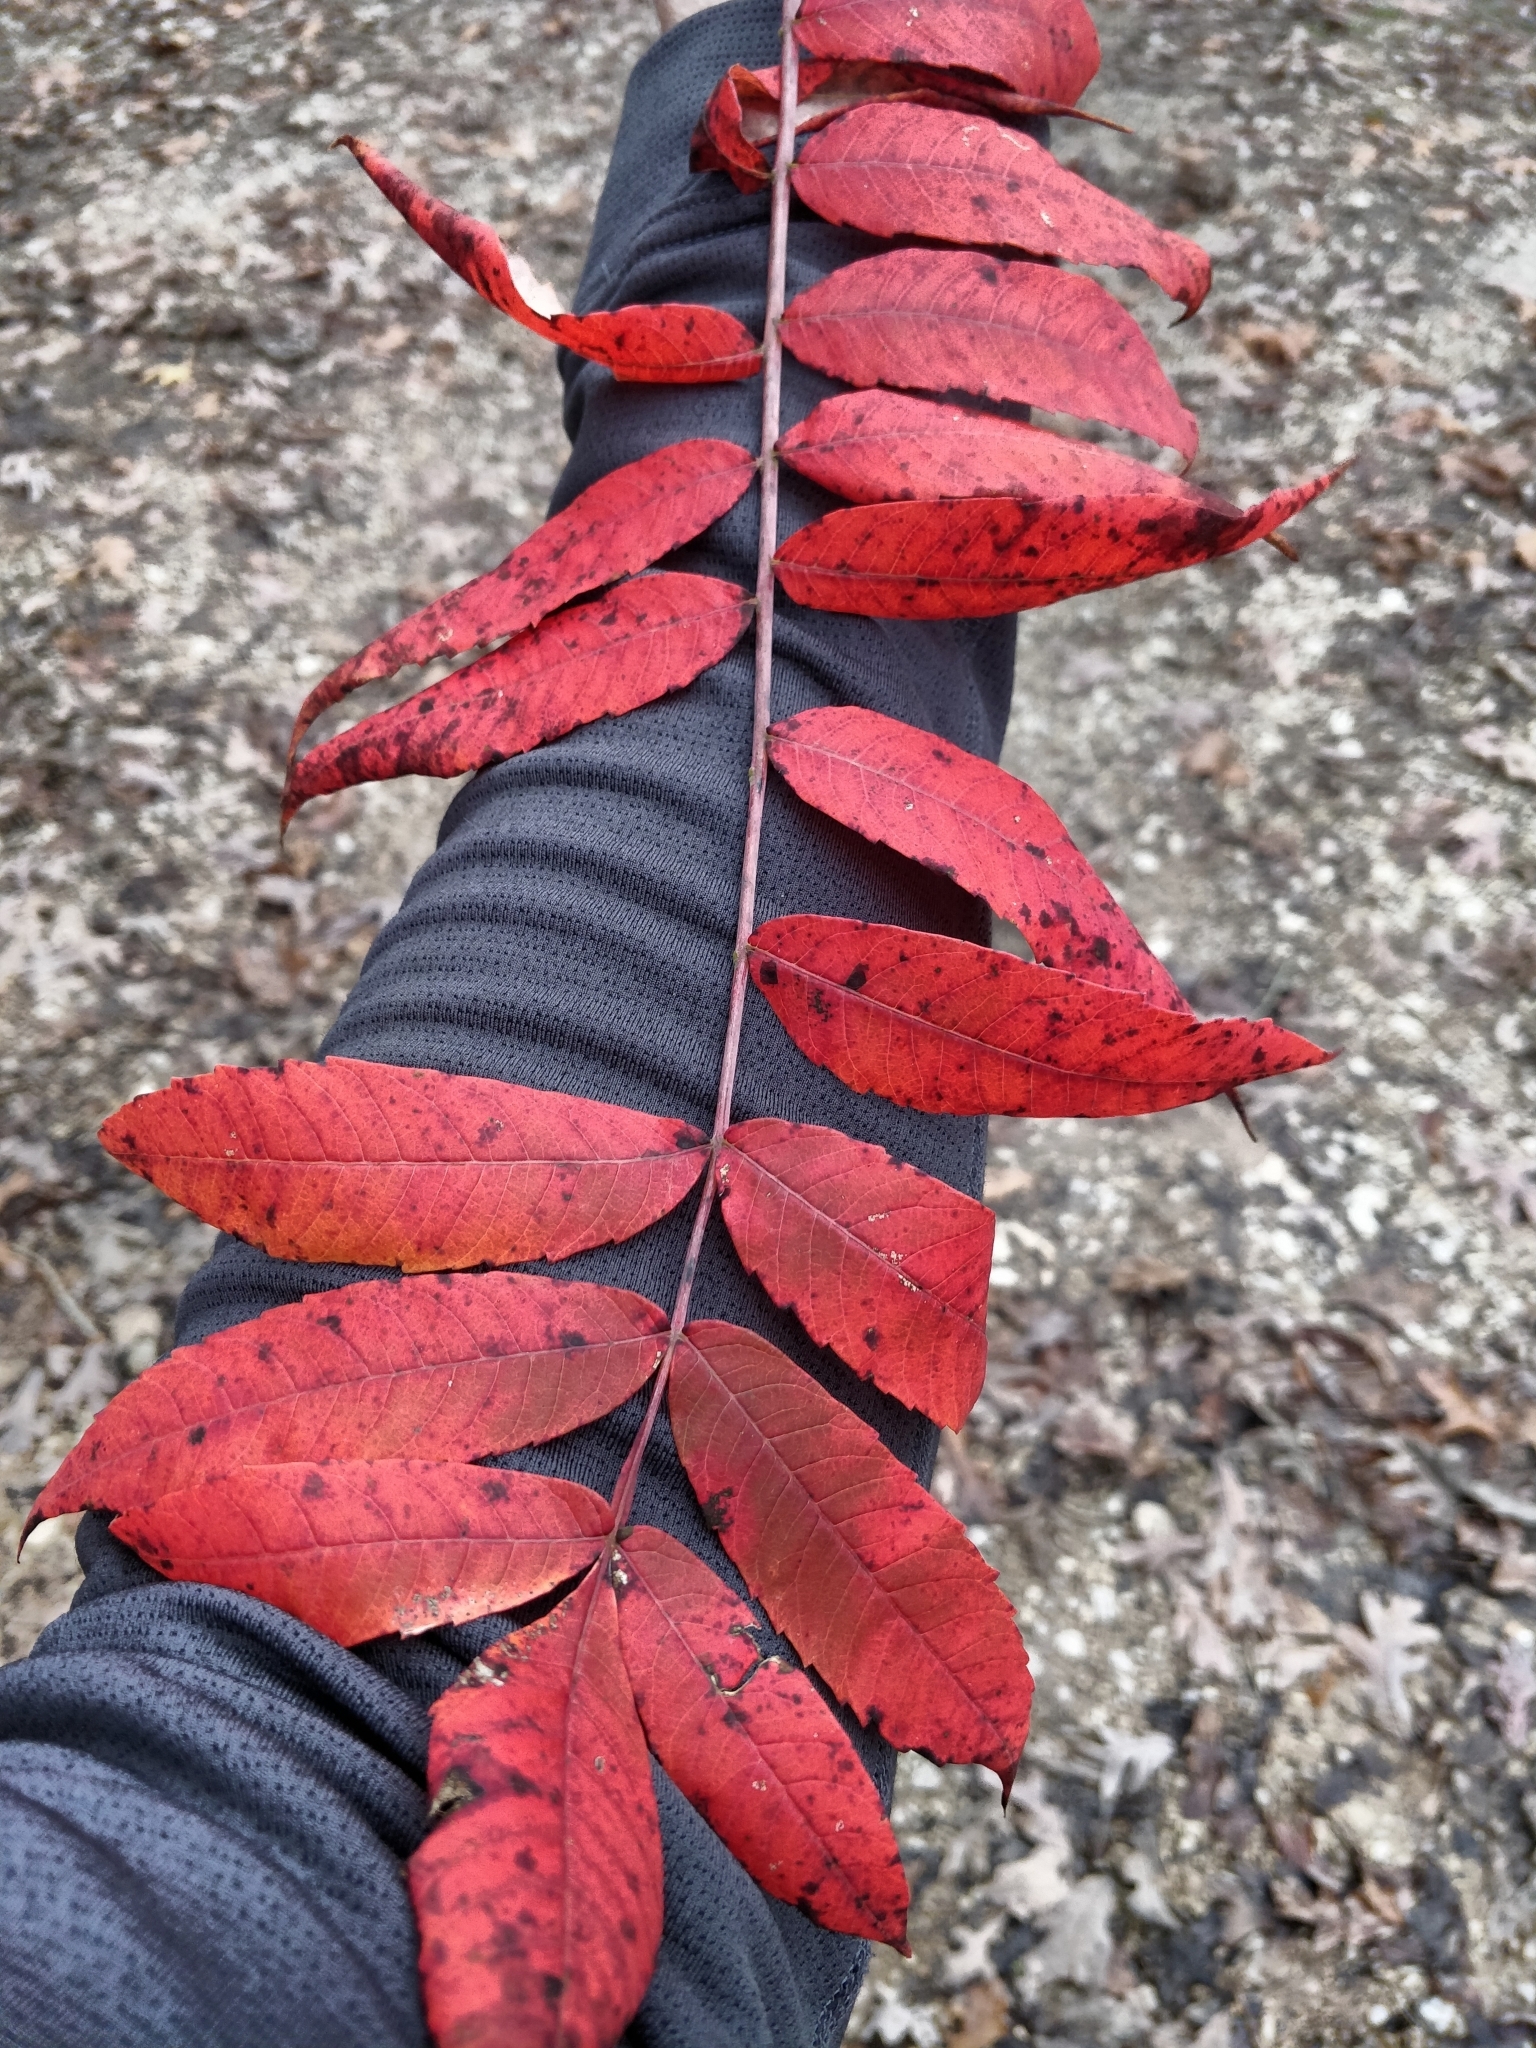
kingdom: Plantae
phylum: Tracheophyta
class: Magnoliopsida
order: Sapindales
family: Anacardiaceae
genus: Rhus
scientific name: Rhus glabra
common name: Scarlet sumac
